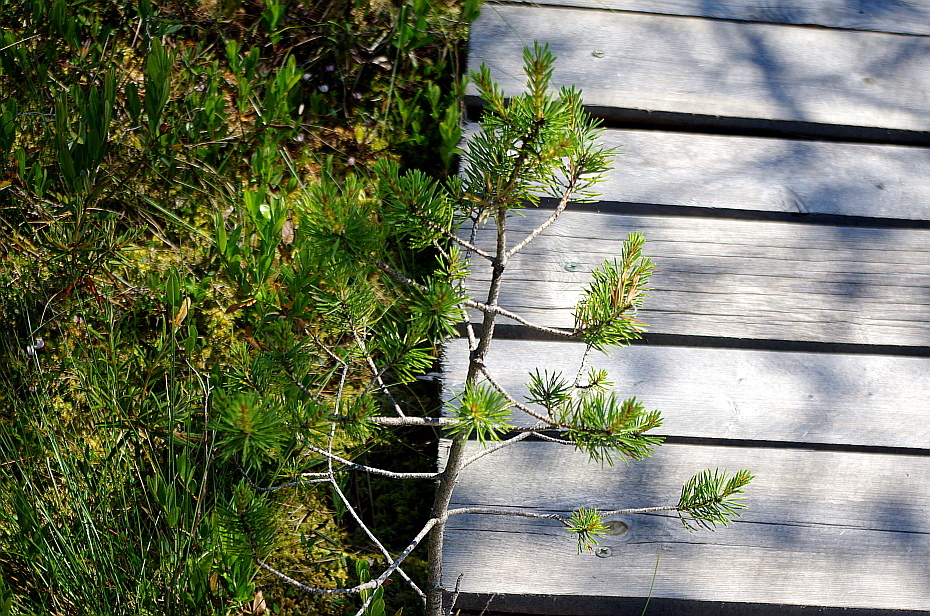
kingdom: Plantae
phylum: Tracheophyta
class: Pinopsida
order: Pinales
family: Pinaceae
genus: Pinus
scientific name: Pinus sylvestris
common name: Scots pine
